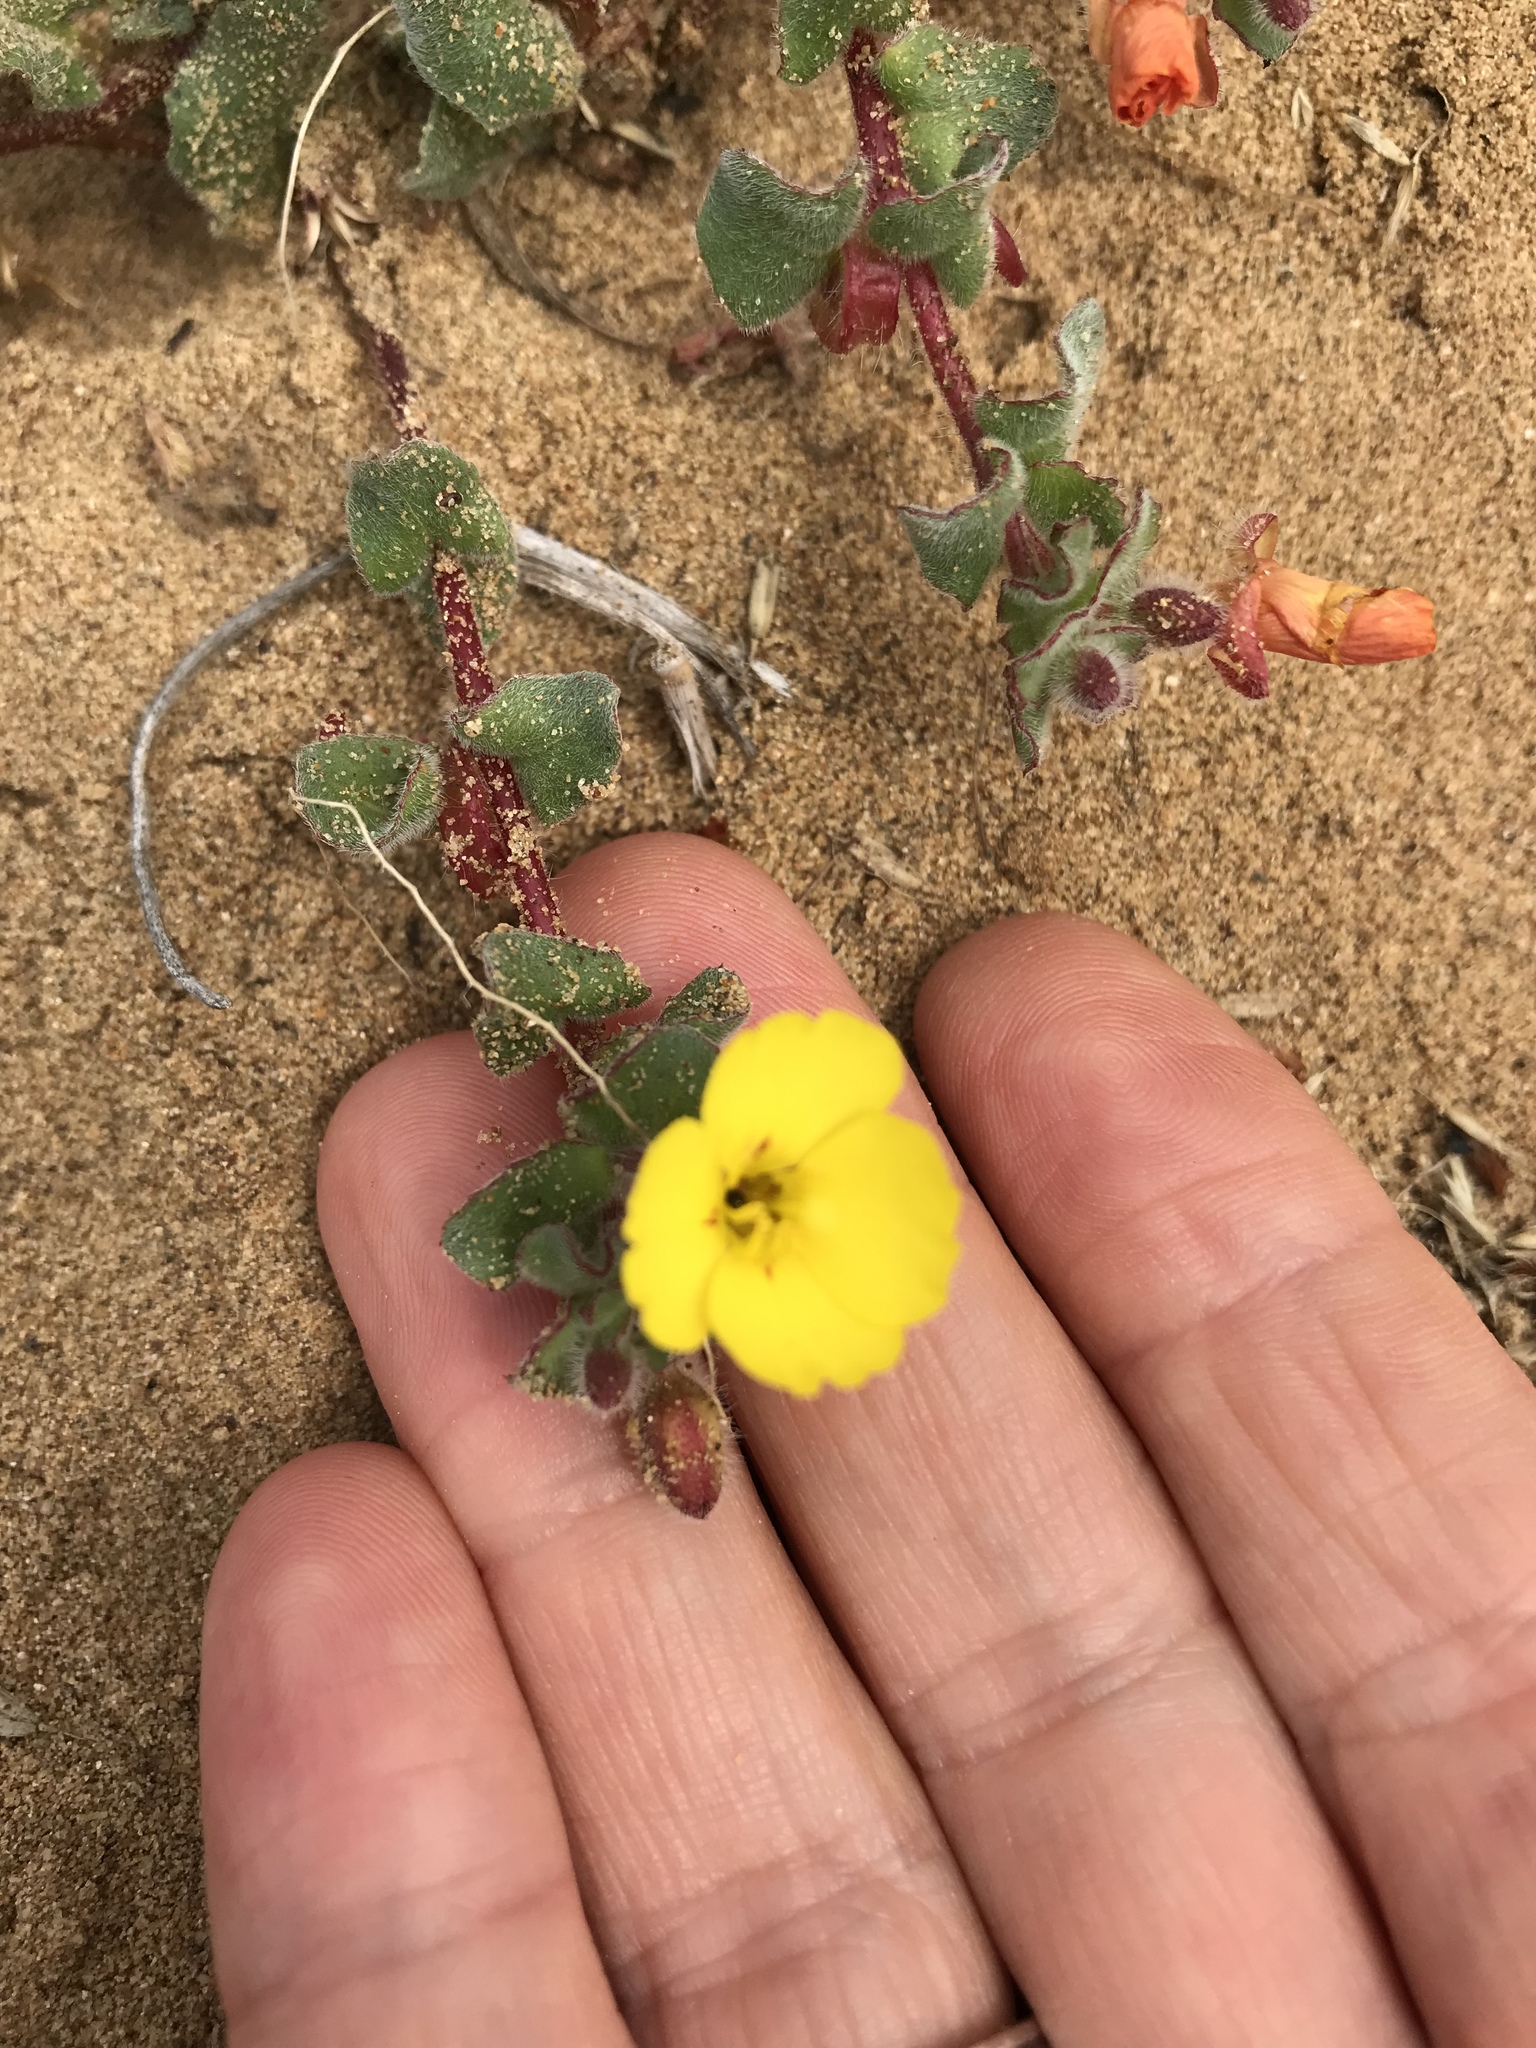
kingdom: Plantae
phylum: Tracheophyta
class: Magnoliopsida
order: Myrtales
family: Onagraceae
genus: Camissoniopsis
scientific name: Camissoniopsis cheiranthifolia
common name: Beach suncup
